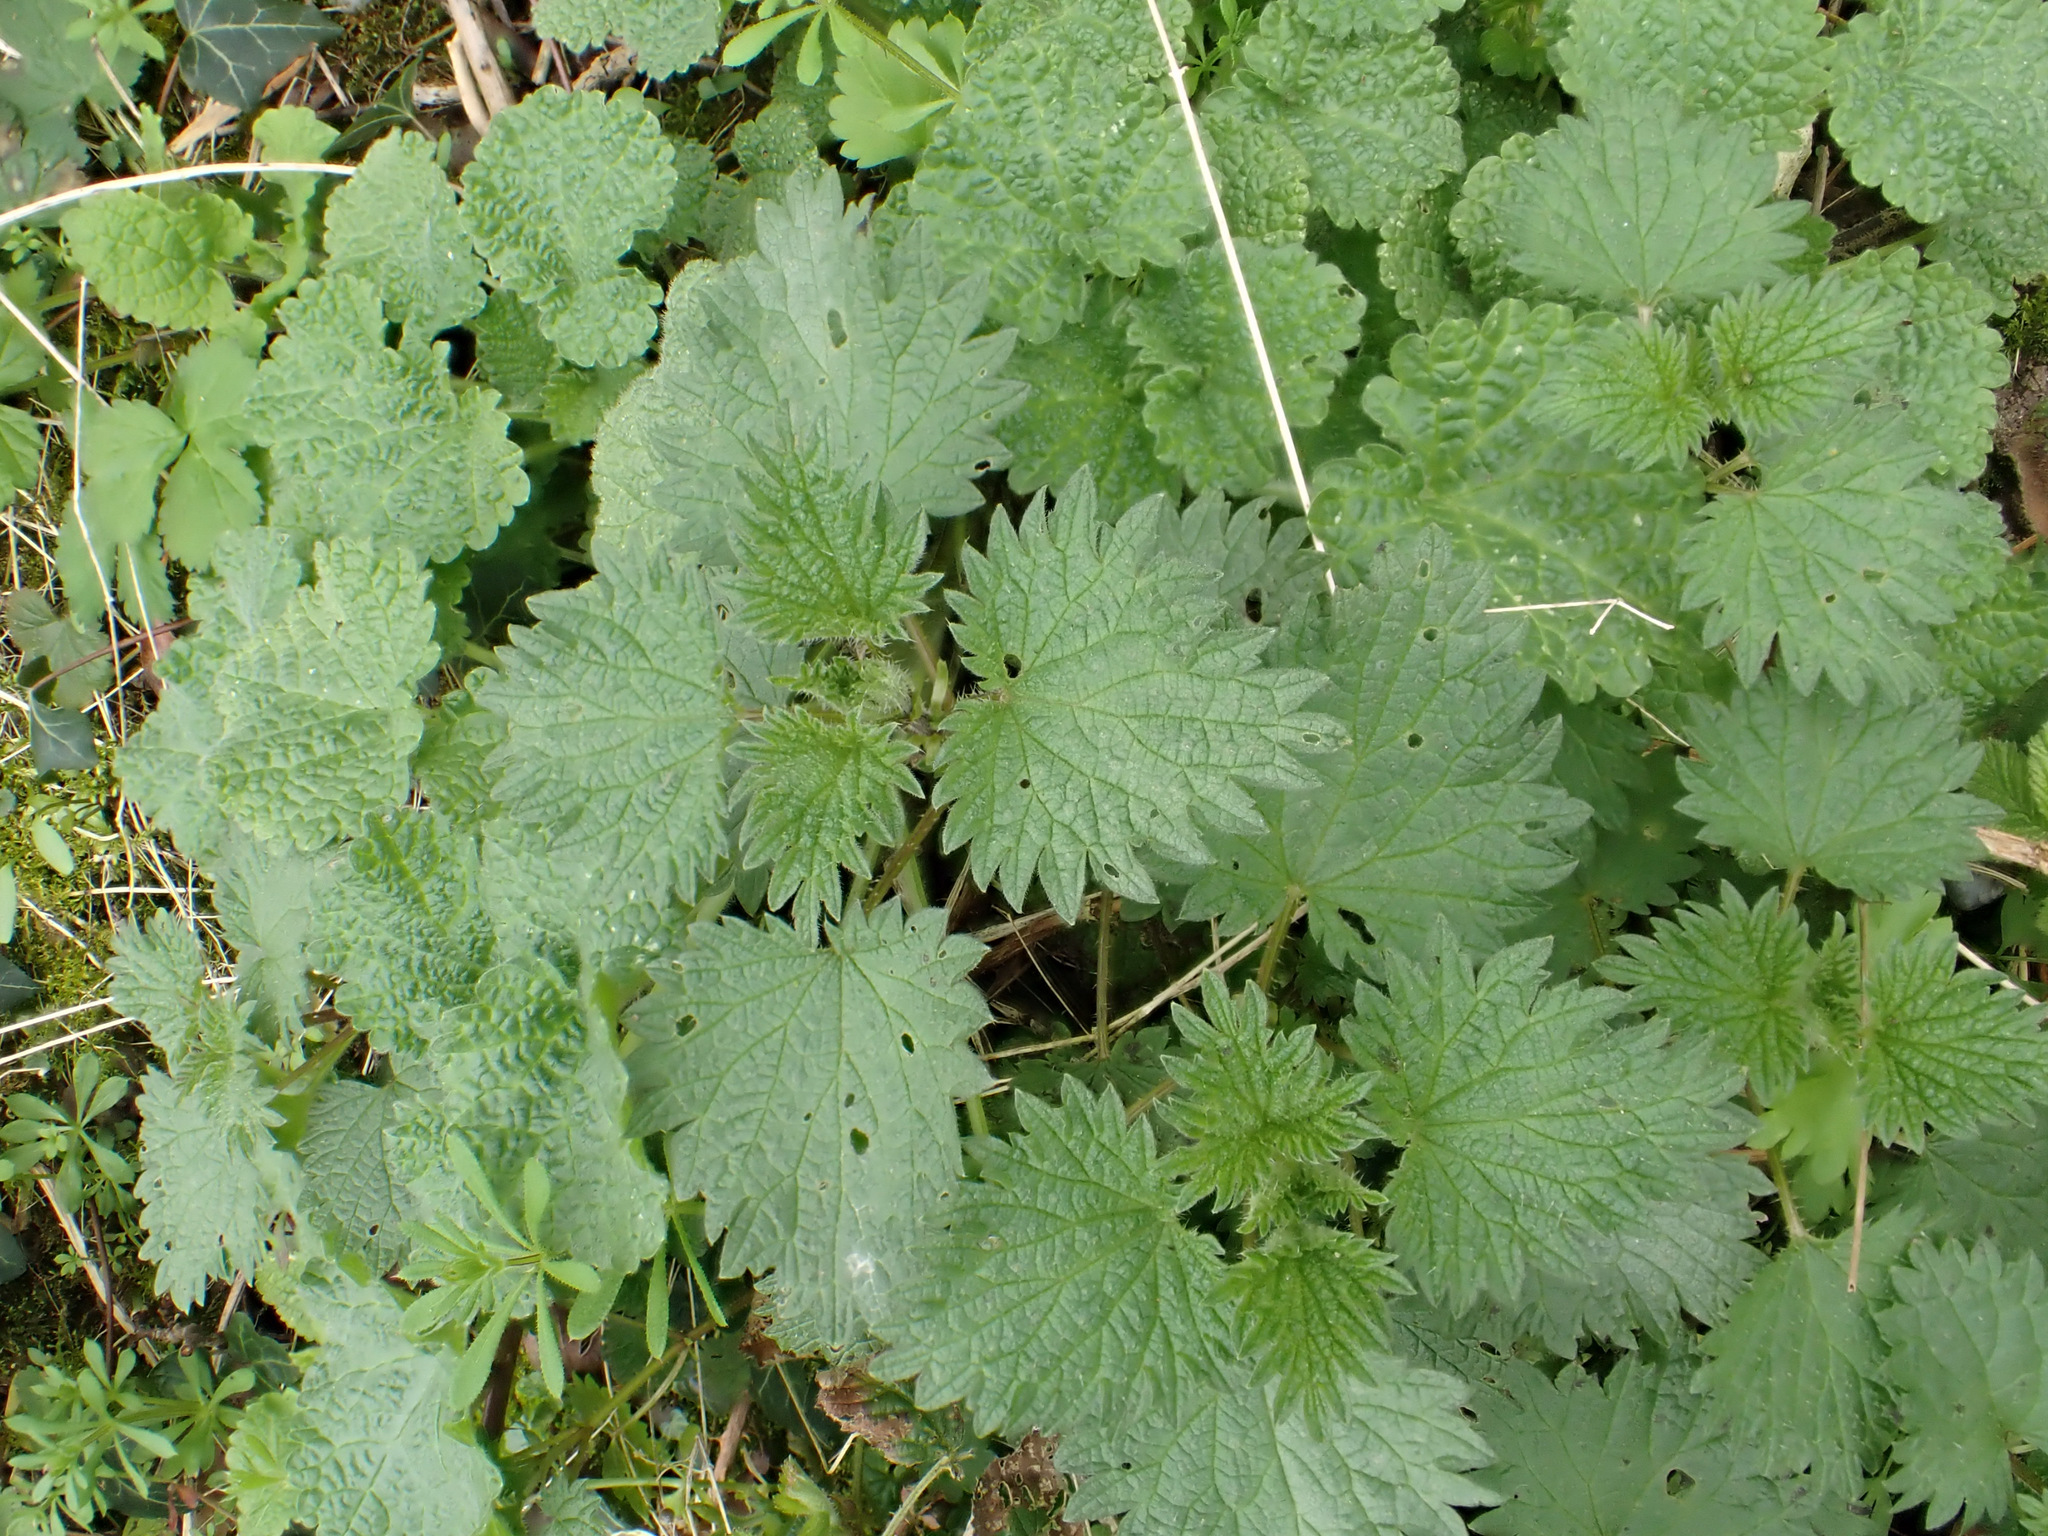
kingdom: Plantae
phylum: Tracheophyta
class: Magnoliopsida
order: Rosales
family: Urticaceae
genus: Urtica
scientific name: Urtica dioica
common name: Common nettle
